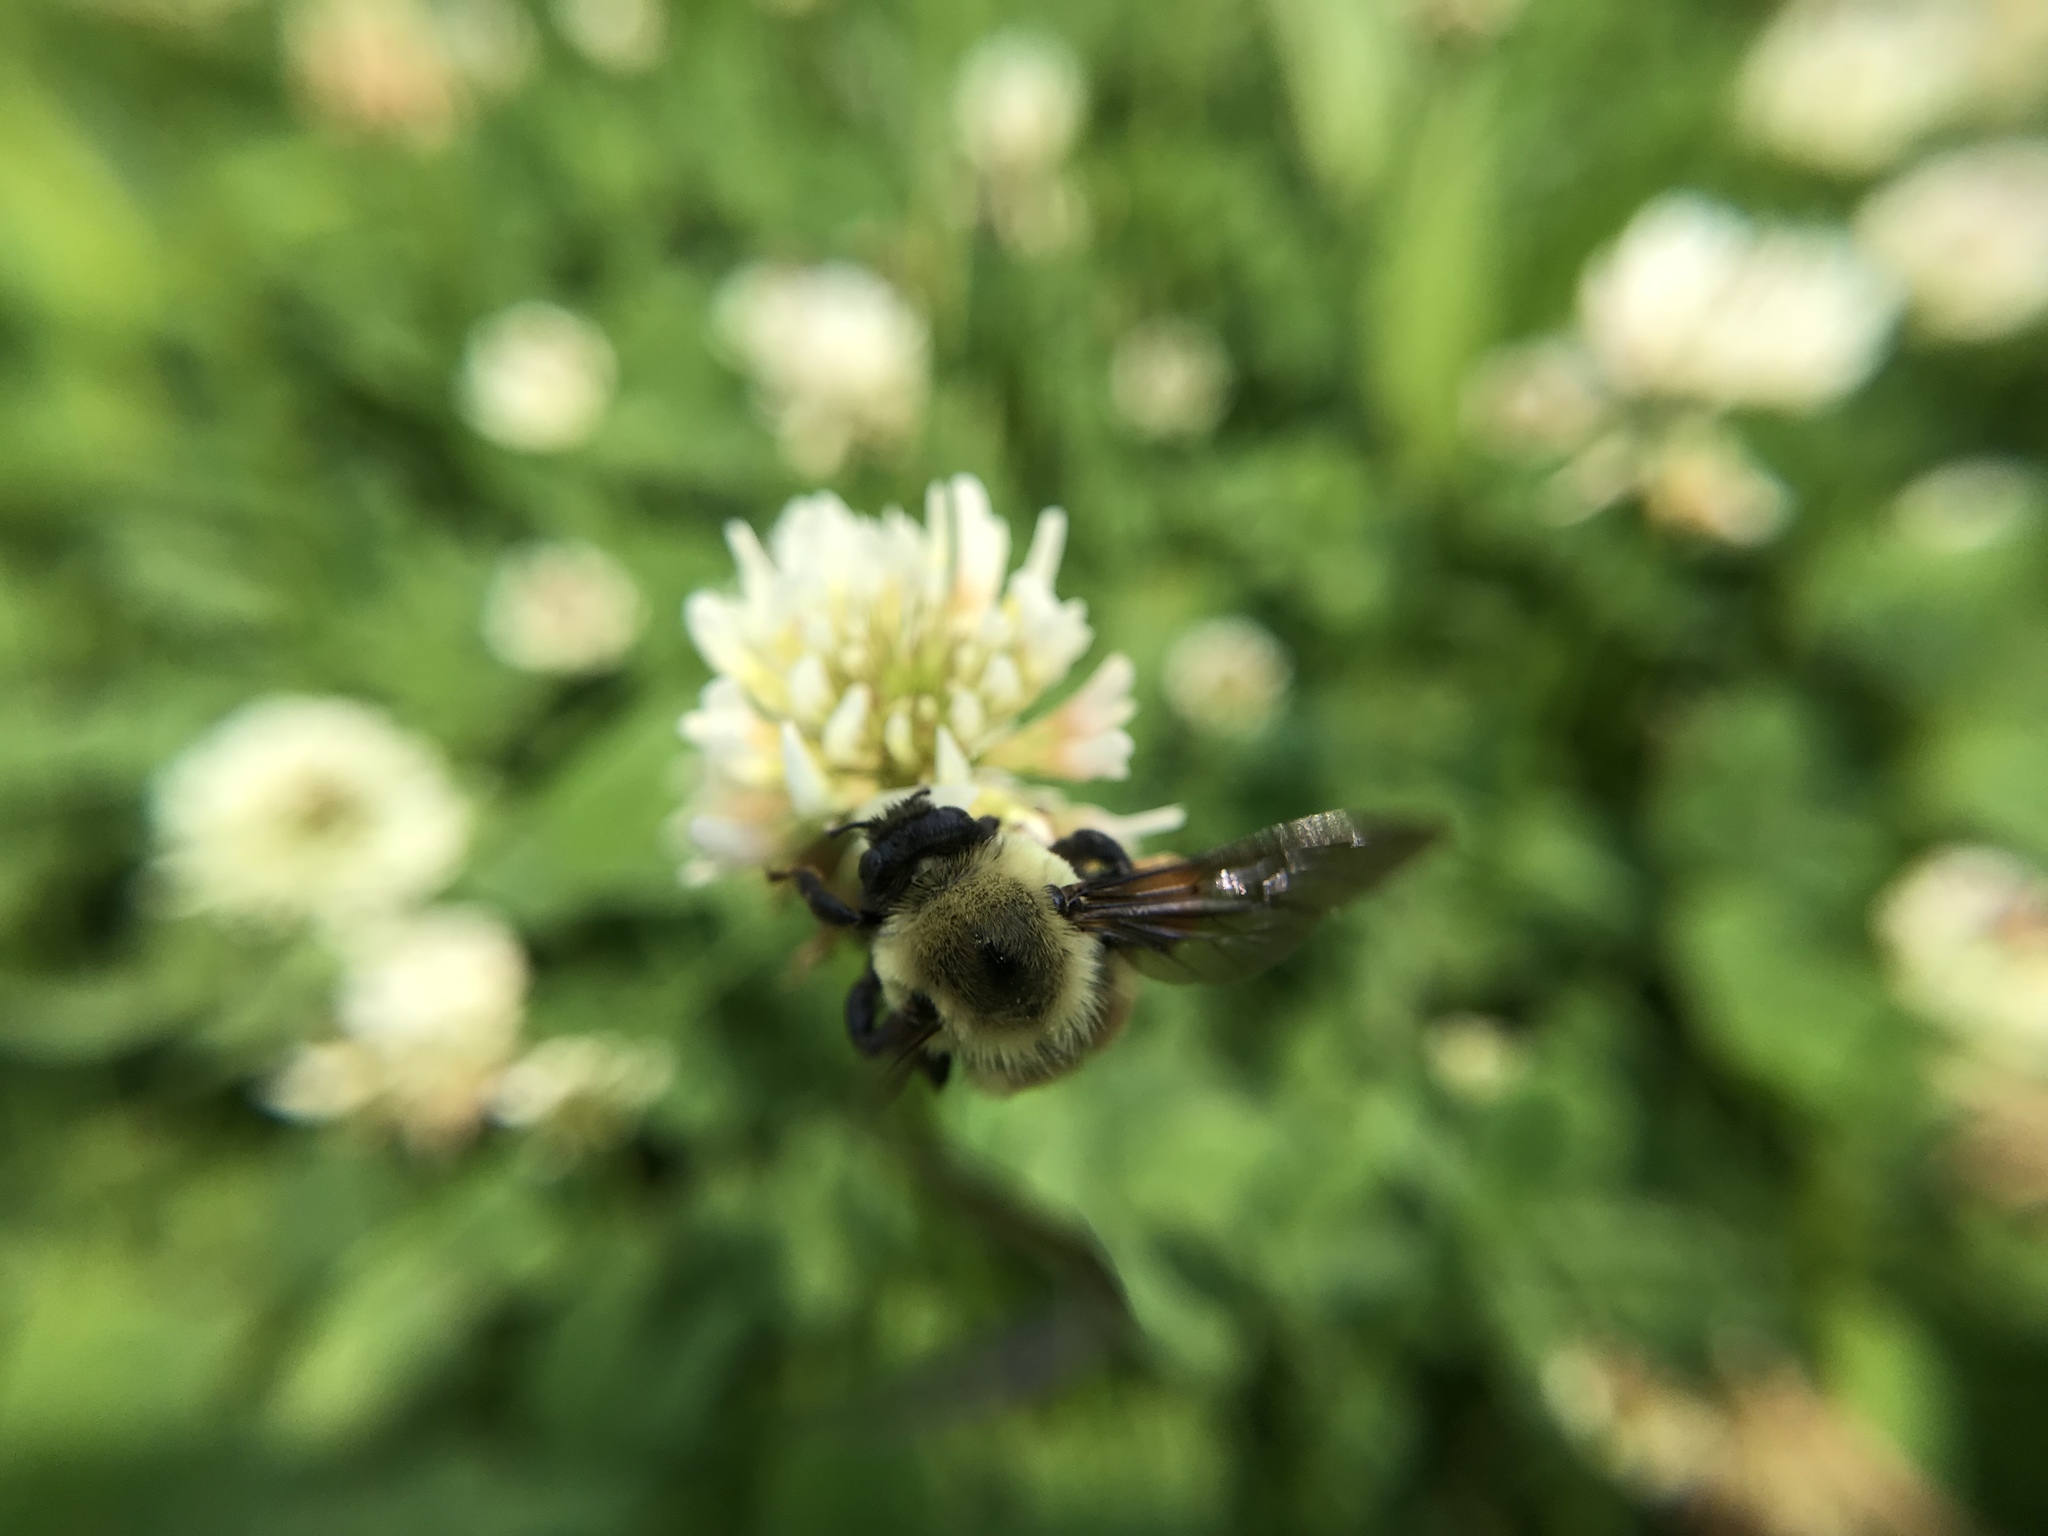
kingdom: Animalia
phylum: Arthropoda
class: Insecta
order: Hymenoptera
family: Apidae
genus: Bombus
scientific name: Bombus griseocollis
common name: Brown-belted bumble bee
